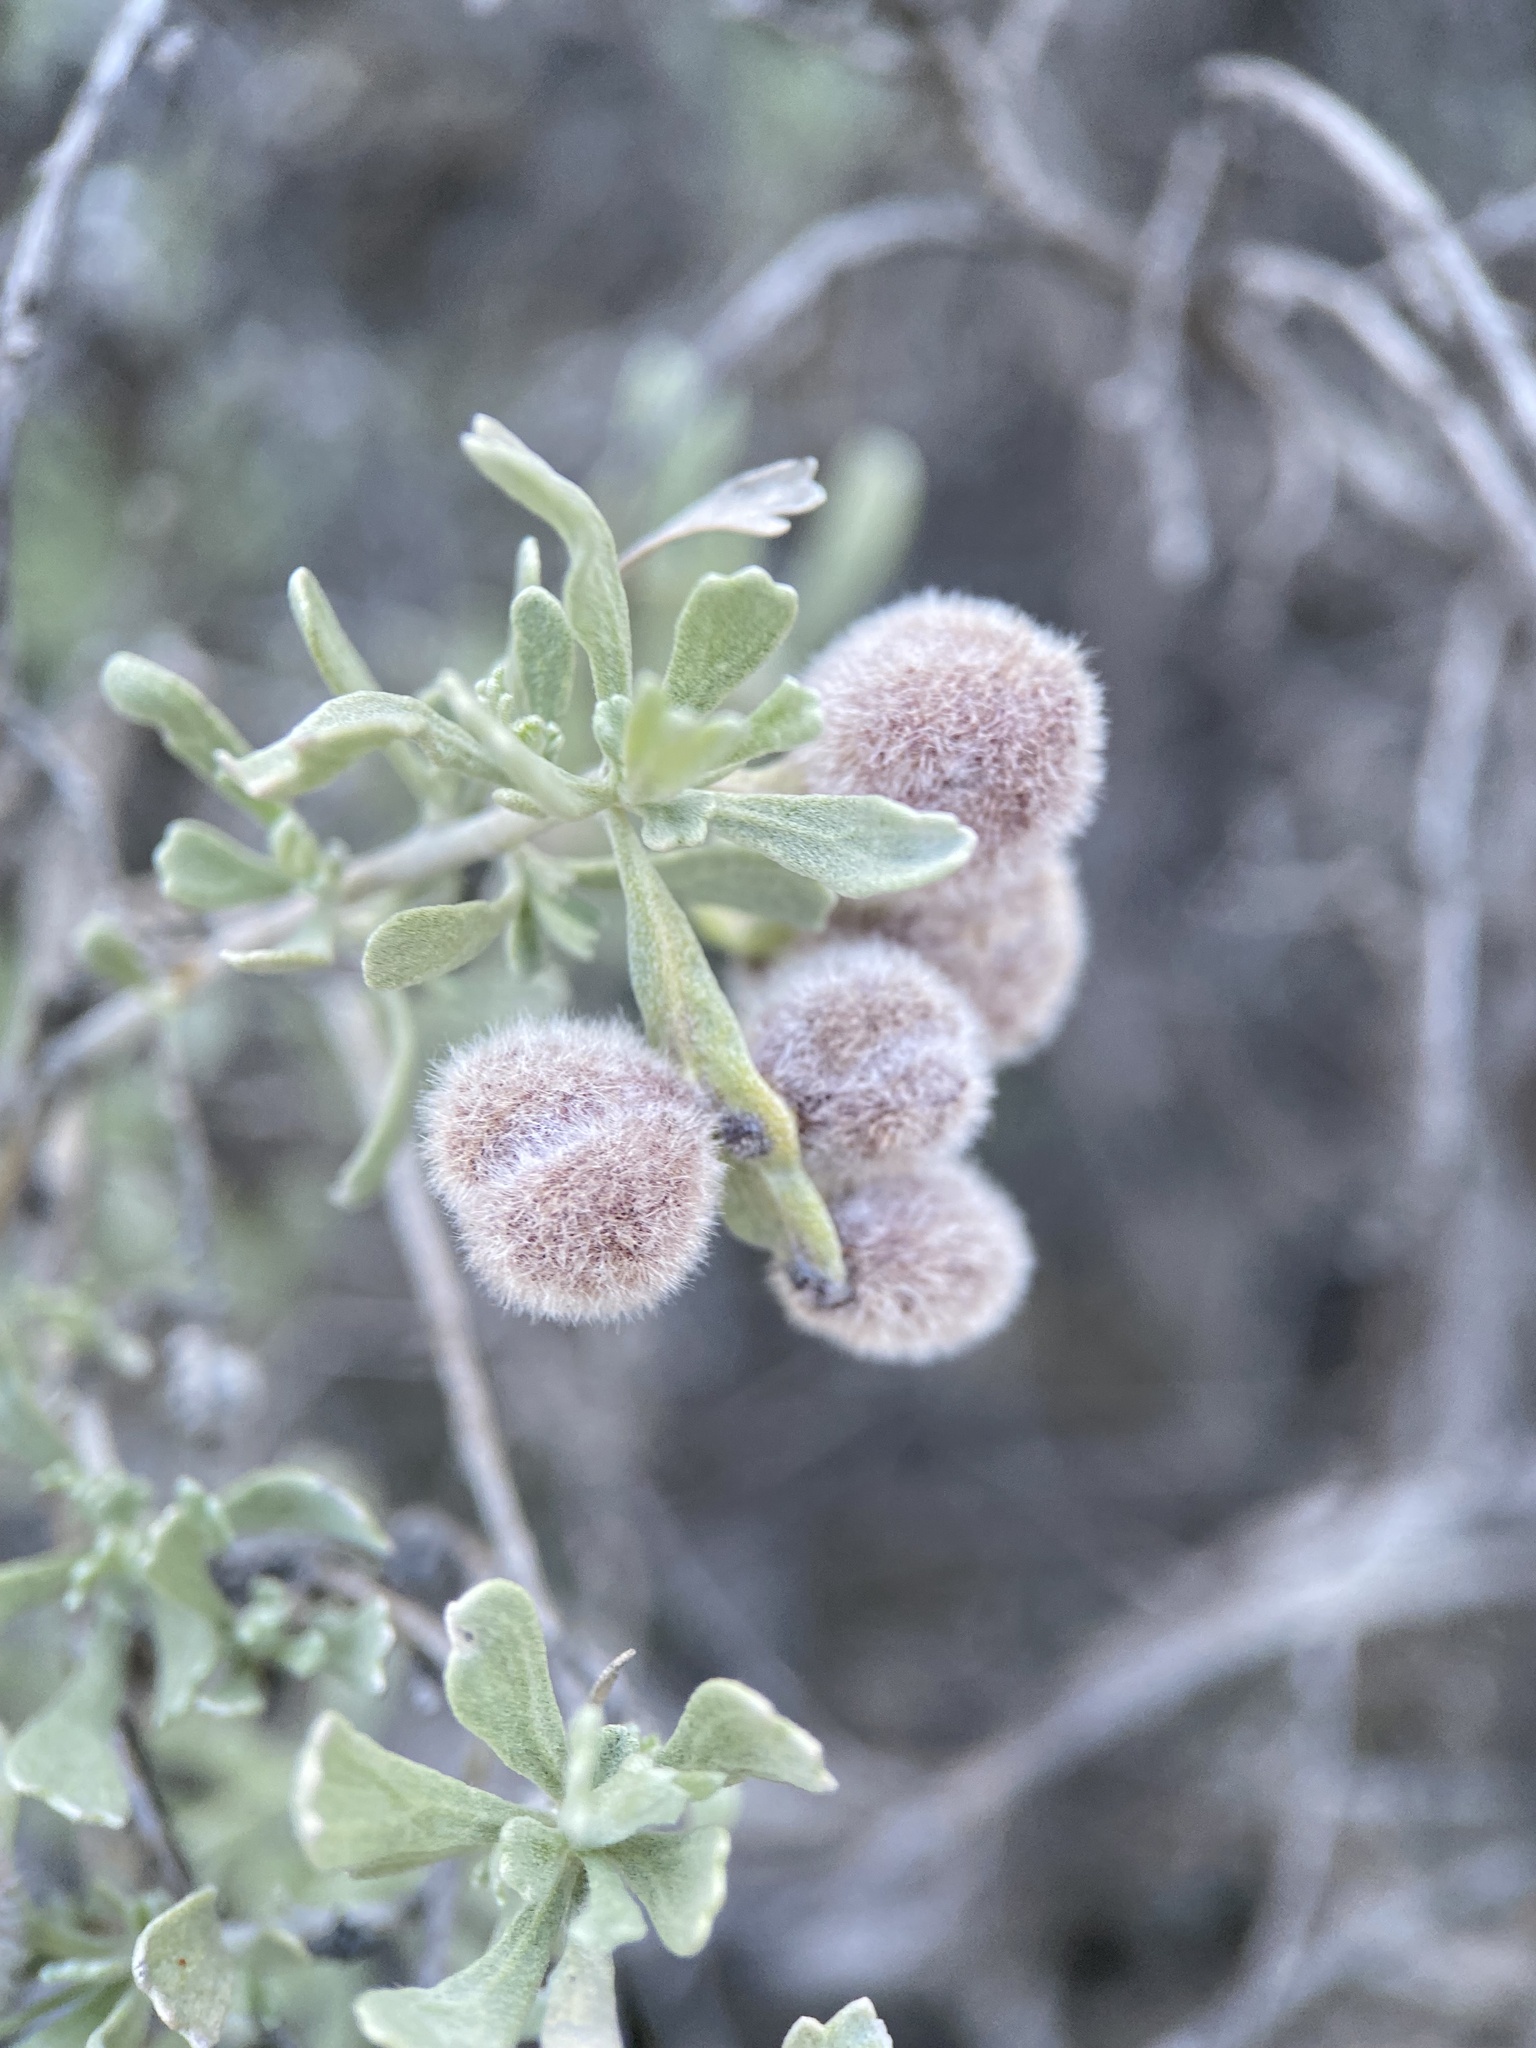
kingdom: Animalia
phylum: Arthropoda
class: Insecta
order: Diptera
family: Cecidomyiidae
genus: Rhopalomyia
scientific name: Rhopalomyia hirtipomum
